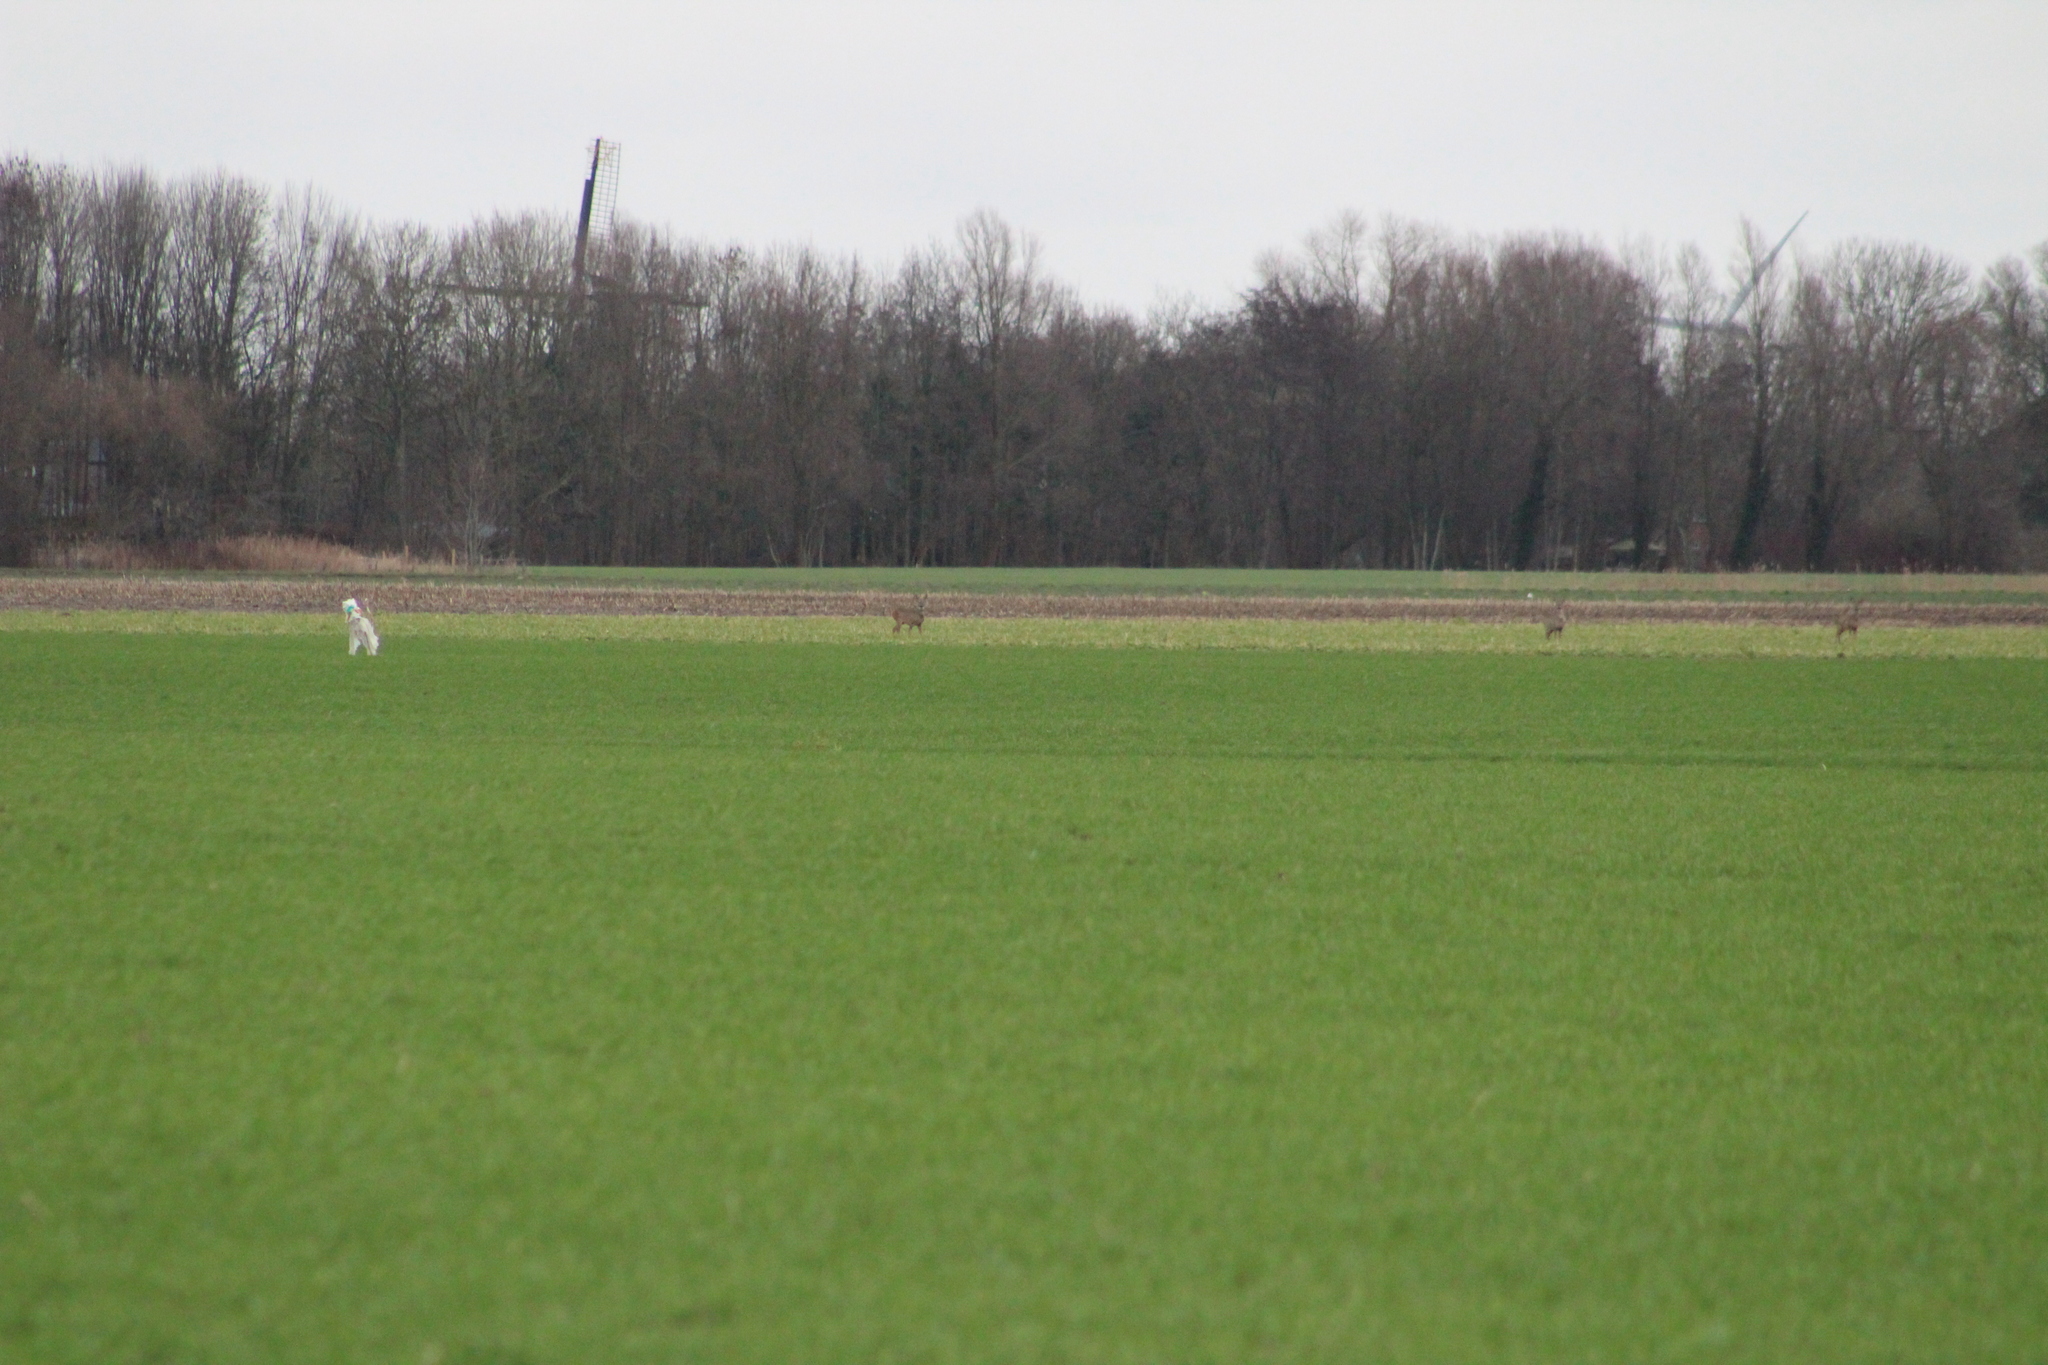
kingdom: Animalia
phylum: Chordata
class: Mammalia
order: Artiodactyla
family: Cervidae
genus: Capreolus
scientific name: Capreolus capreolus
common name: Western roe deer
